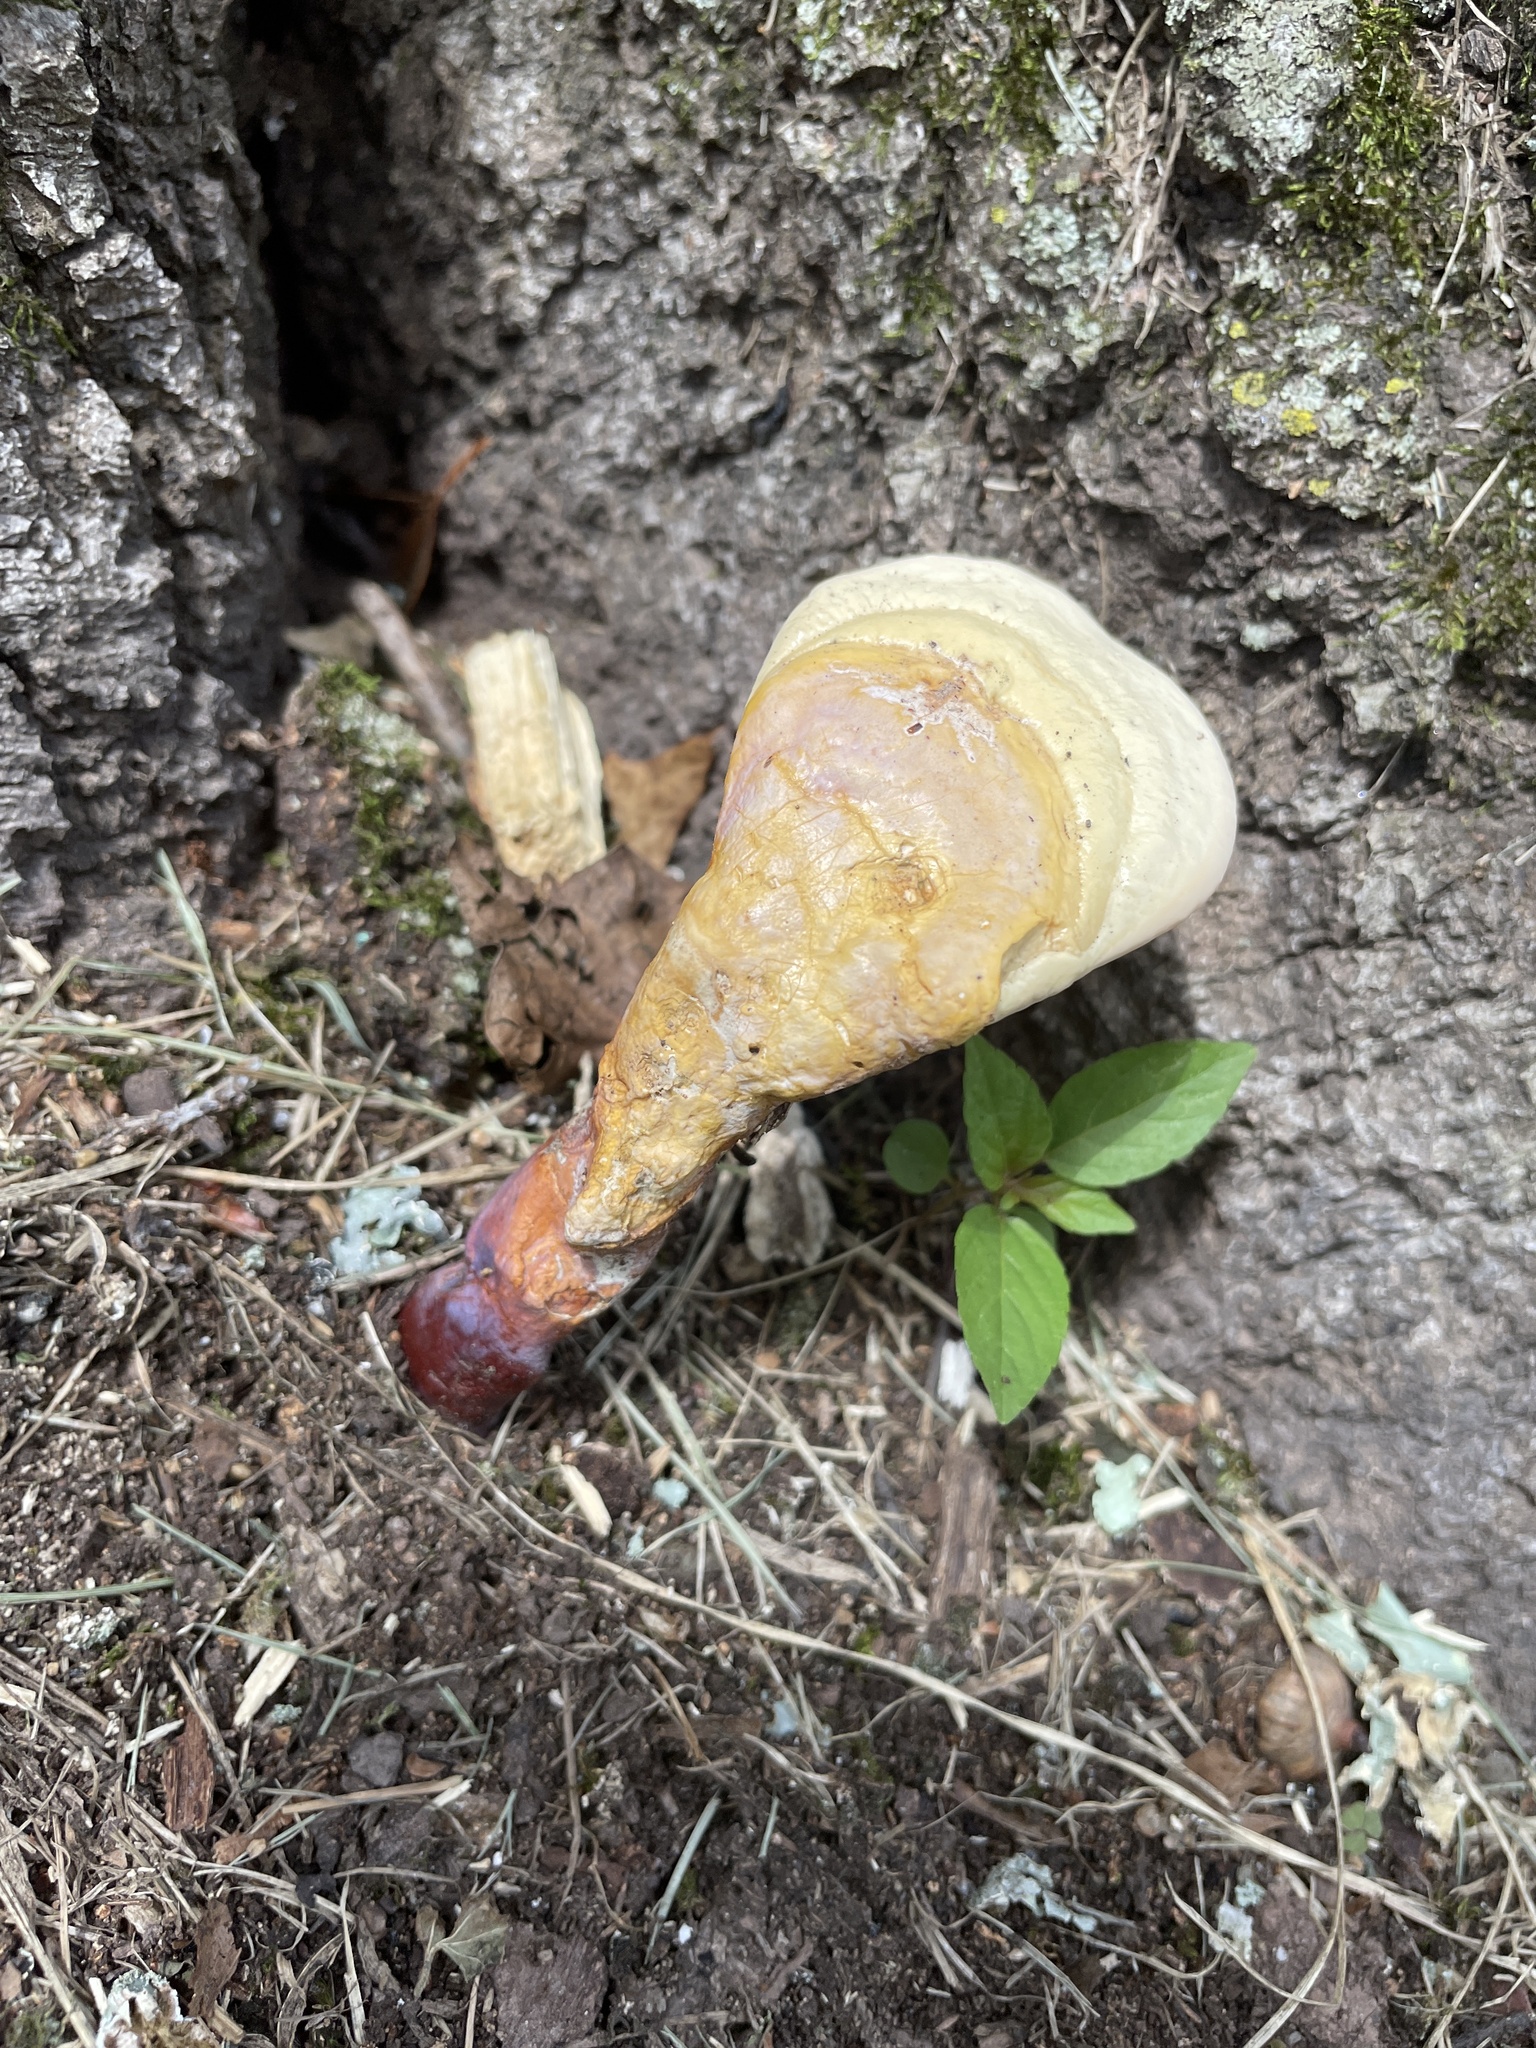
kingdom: Fungi
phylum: Basidiomycota
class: Agaricomycetes
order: Polyporales
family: Polyporaceae
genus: Ganoderma
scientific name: Ganoderma curtisii
